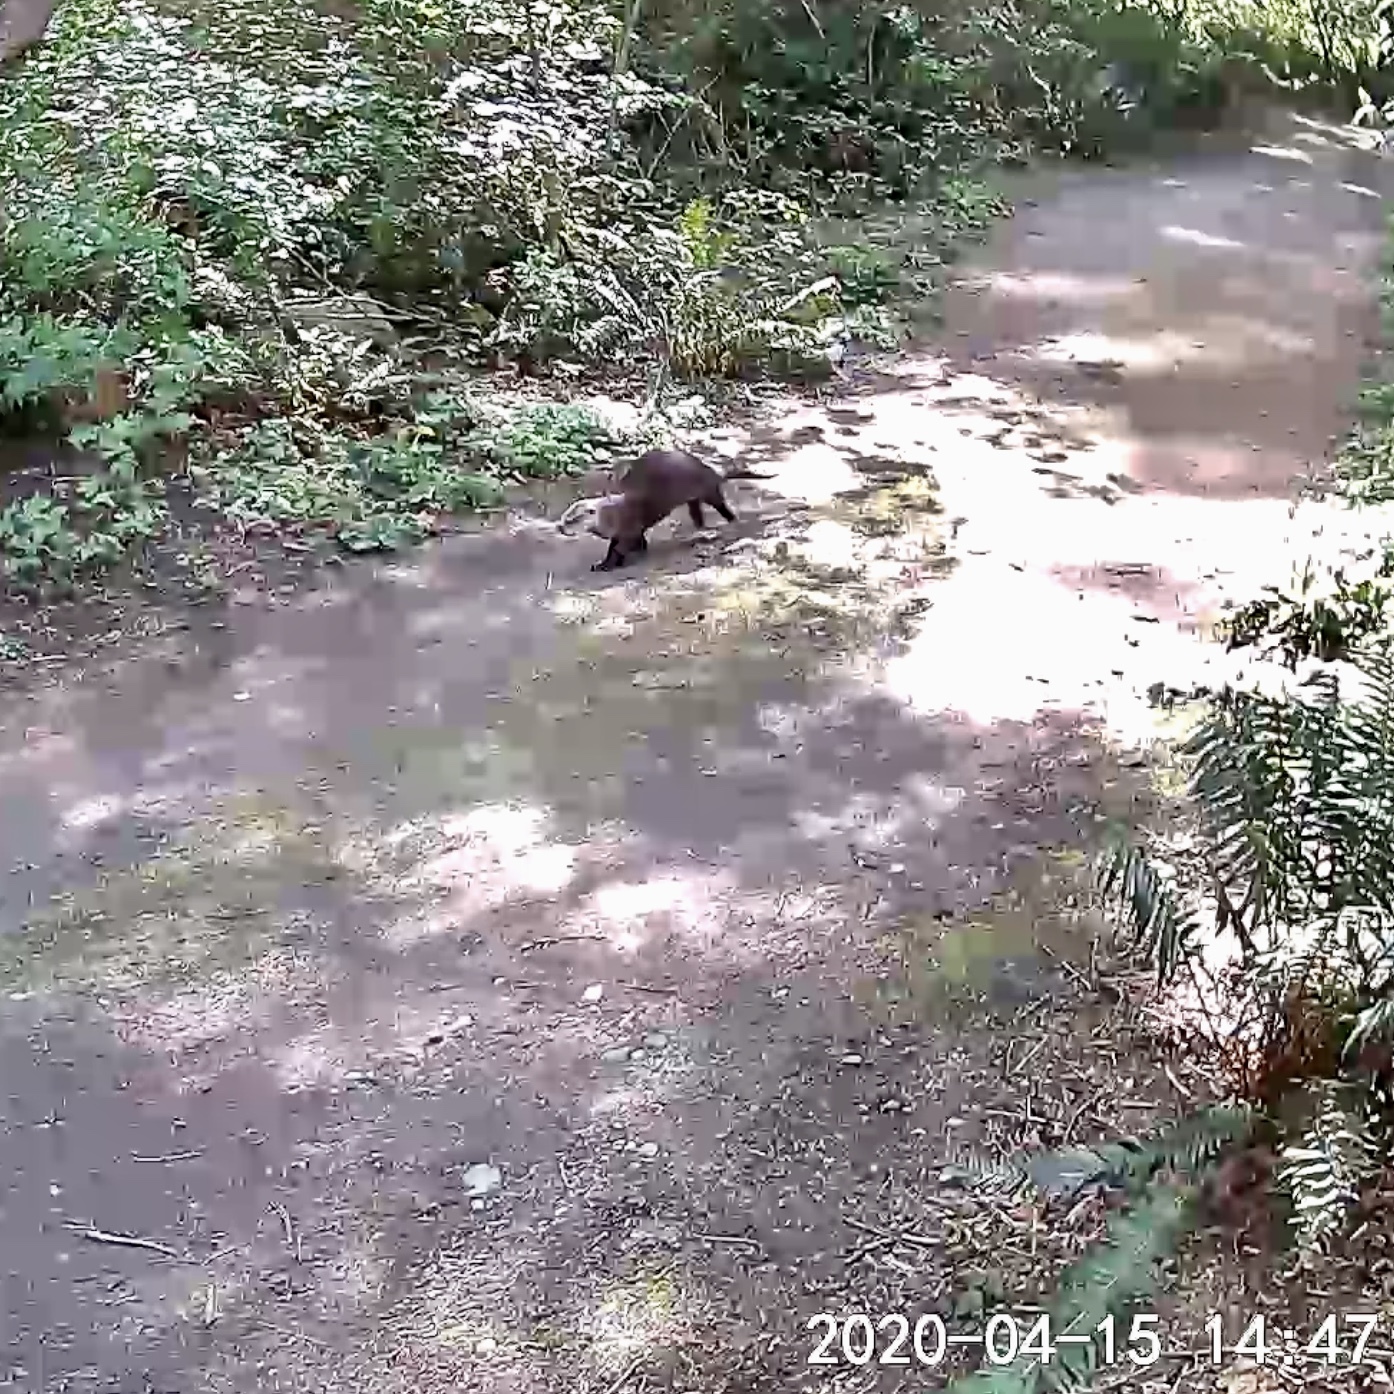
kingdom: Animalia
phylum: Chordata
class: Mammalia
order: Carnivora
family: Mustelidae
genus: Lontra
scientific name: Lontra canadensis
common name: North american river otter
